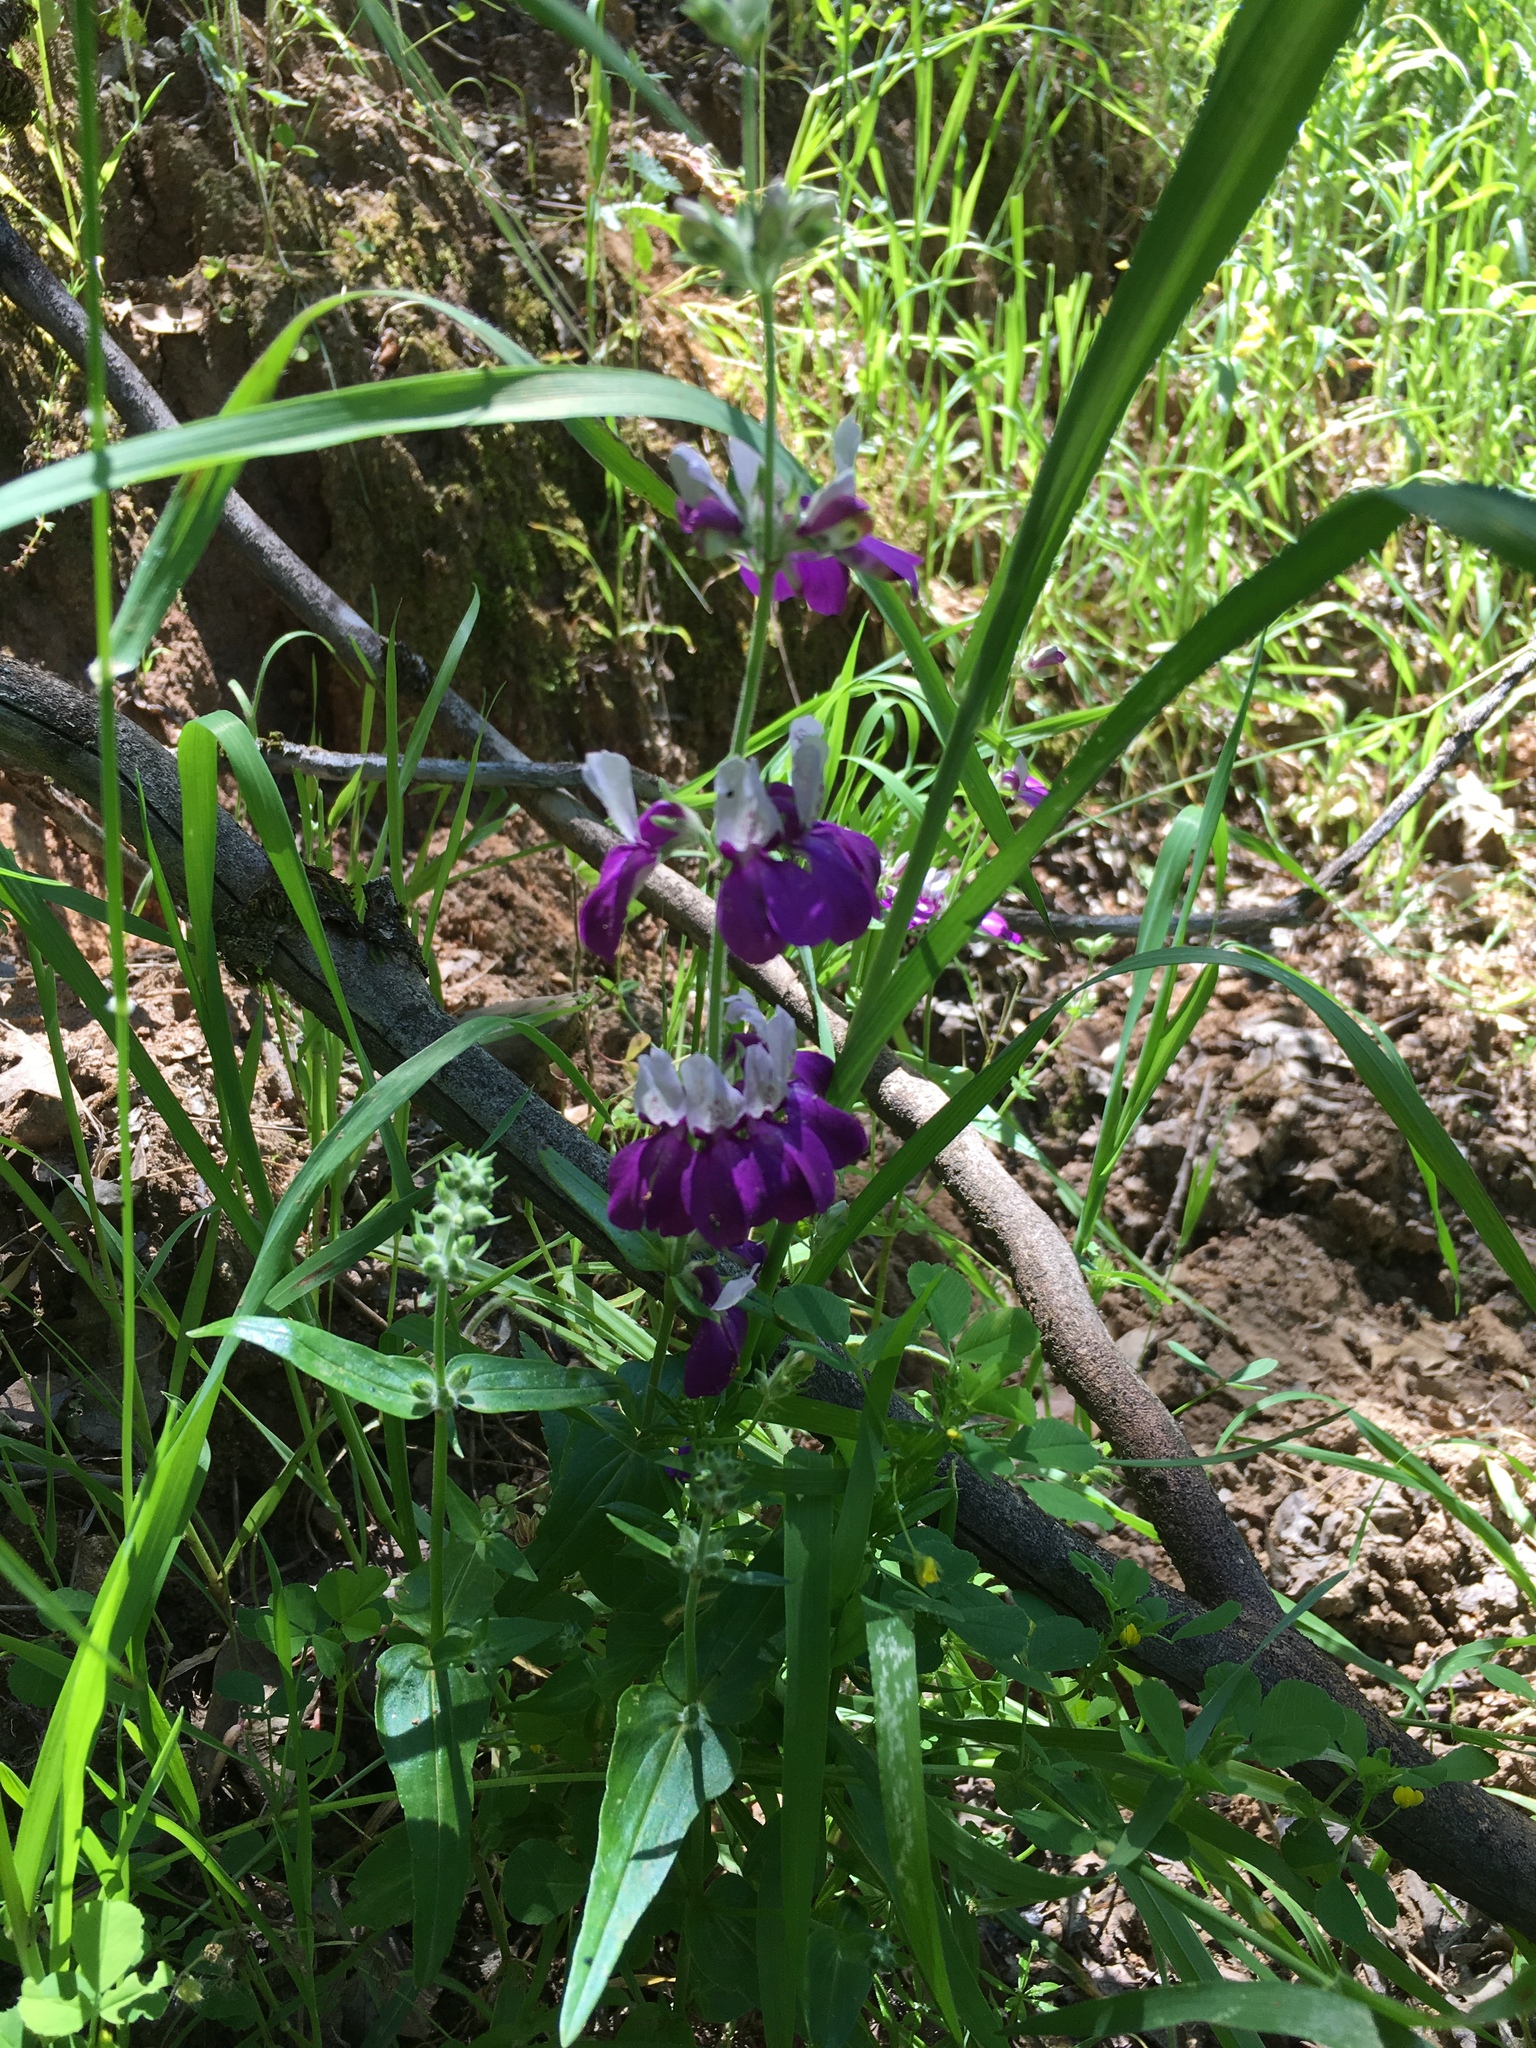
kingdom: Plantae
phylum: Tracheophyta
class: Magnoliopsida
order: Lamiales
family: Plantaginaceae
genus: Collinsia
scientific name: Collinsia heterophylla
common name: Chinese-houses
